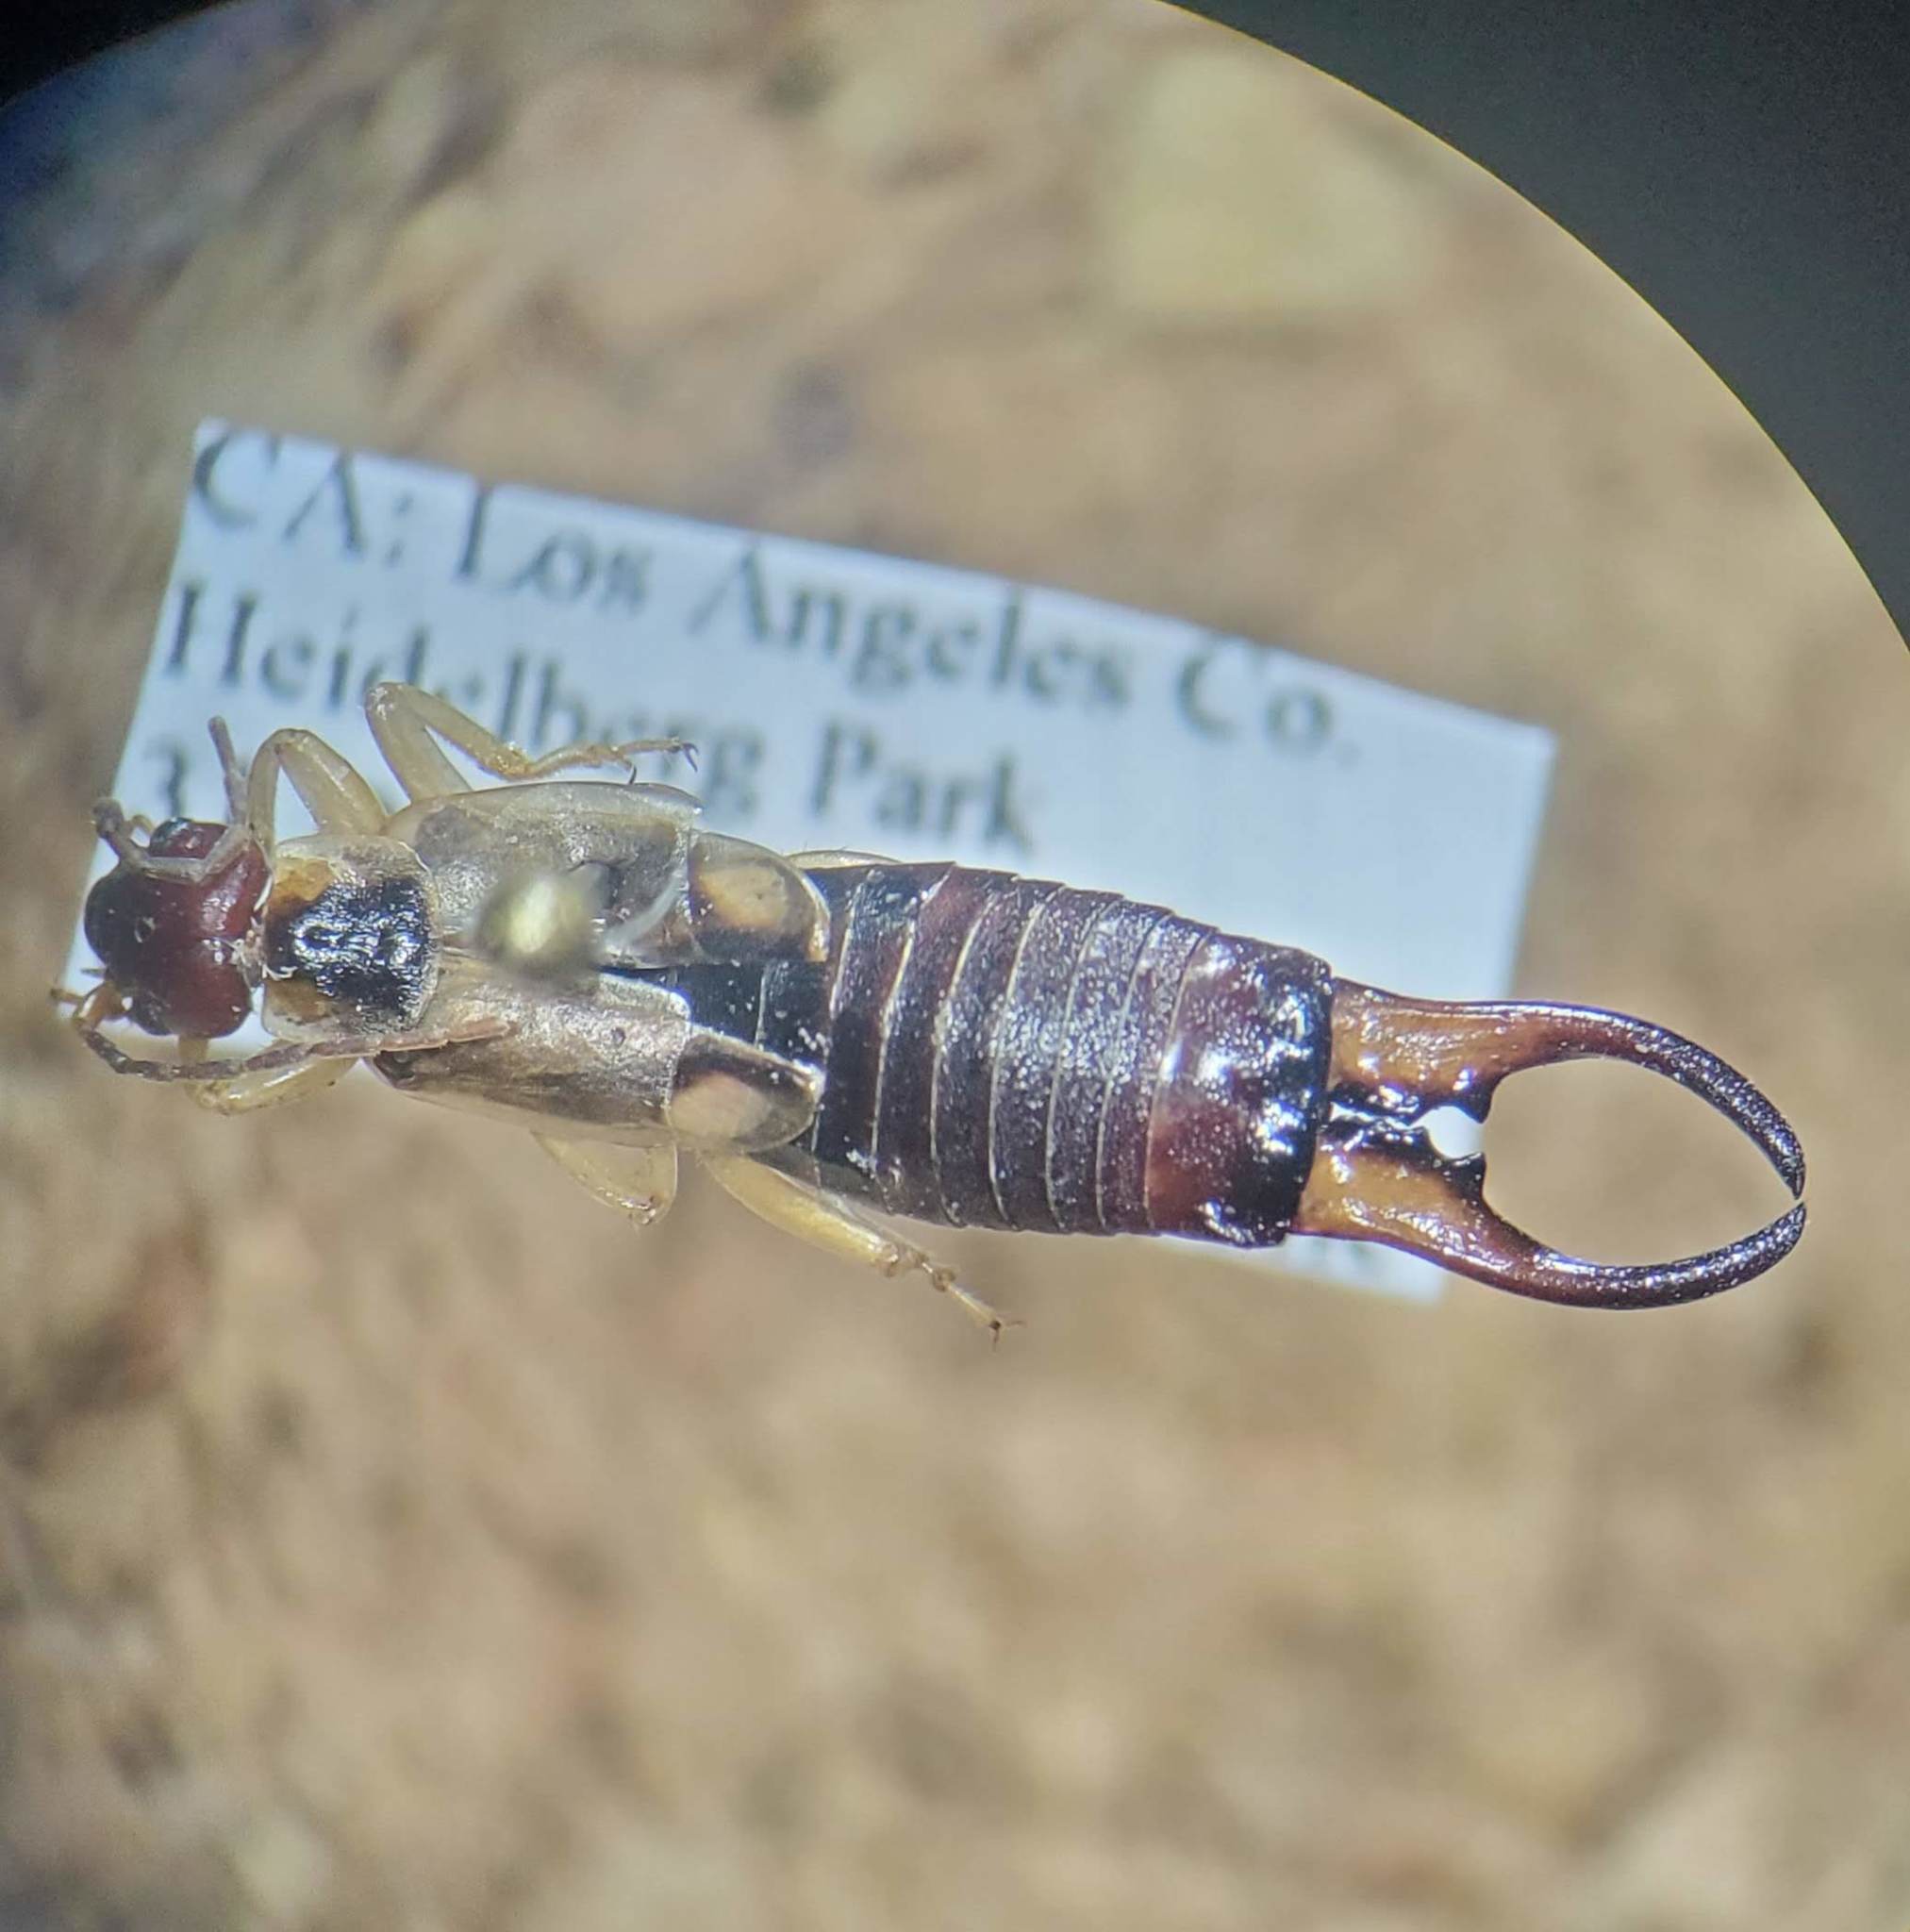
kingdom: Animalia
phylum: Arthropoda
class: Insecta
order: Dermaptera
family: Forficulidae
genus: Forficula
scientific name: Forficula
